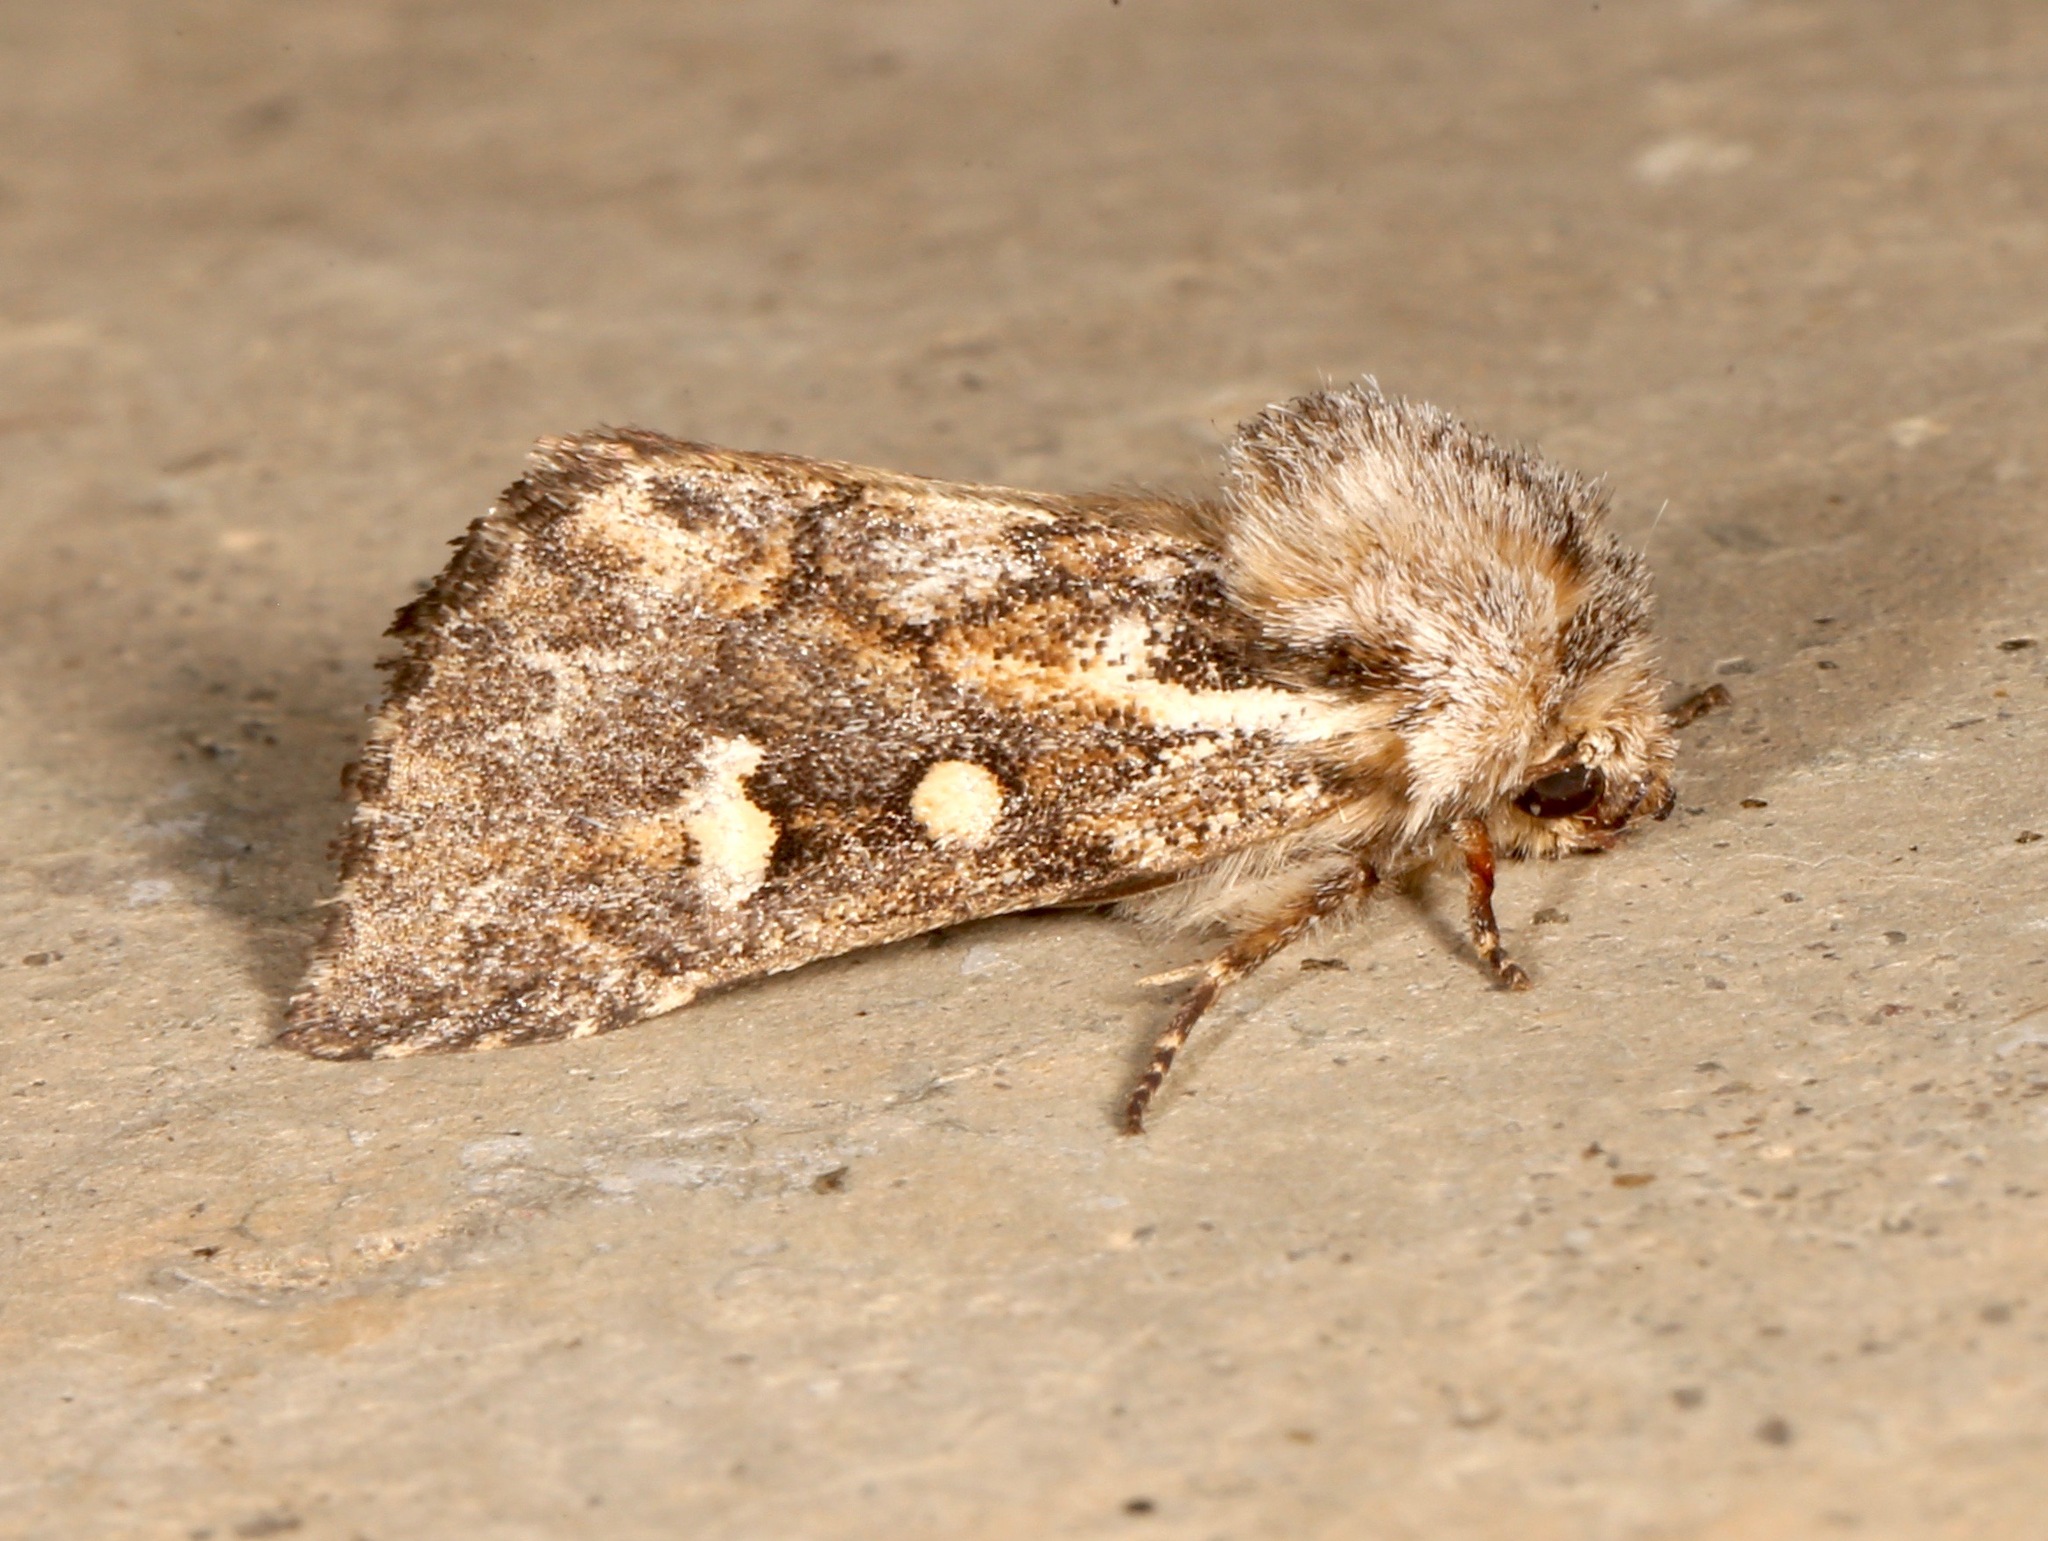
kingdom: Animalia
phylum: Arthropoda
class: Insecta
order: Lepidoptera
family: Noctuidae
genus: Fala
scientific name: Fala ptychophora
